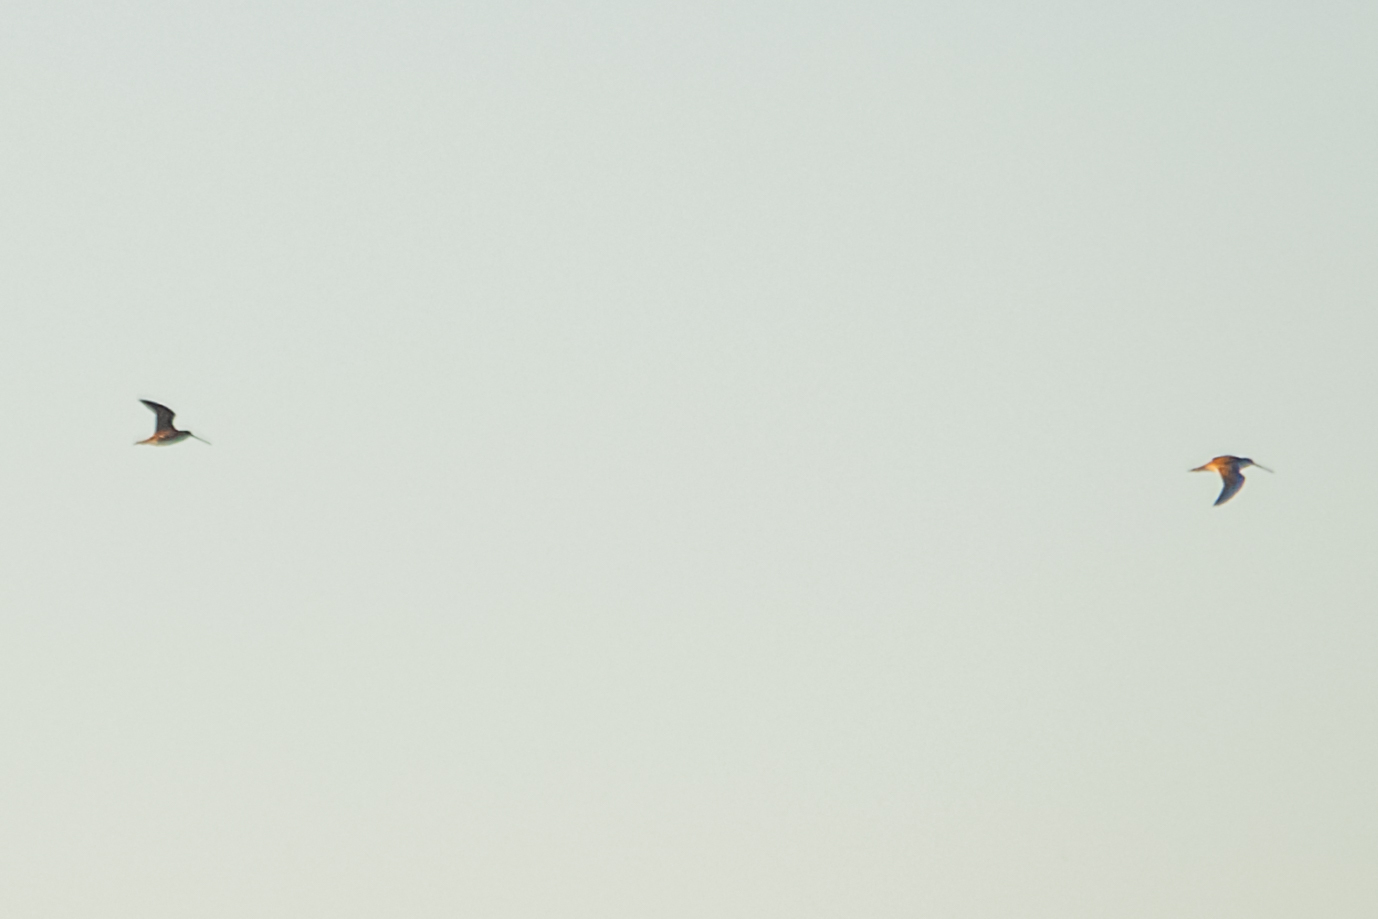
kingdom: Animalia
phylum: Chordata
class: Aves
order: Charadriiformes
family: Scolopacidae
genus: Scolopax
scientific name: Scolopax rusticola
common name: Eurasian woodcock
